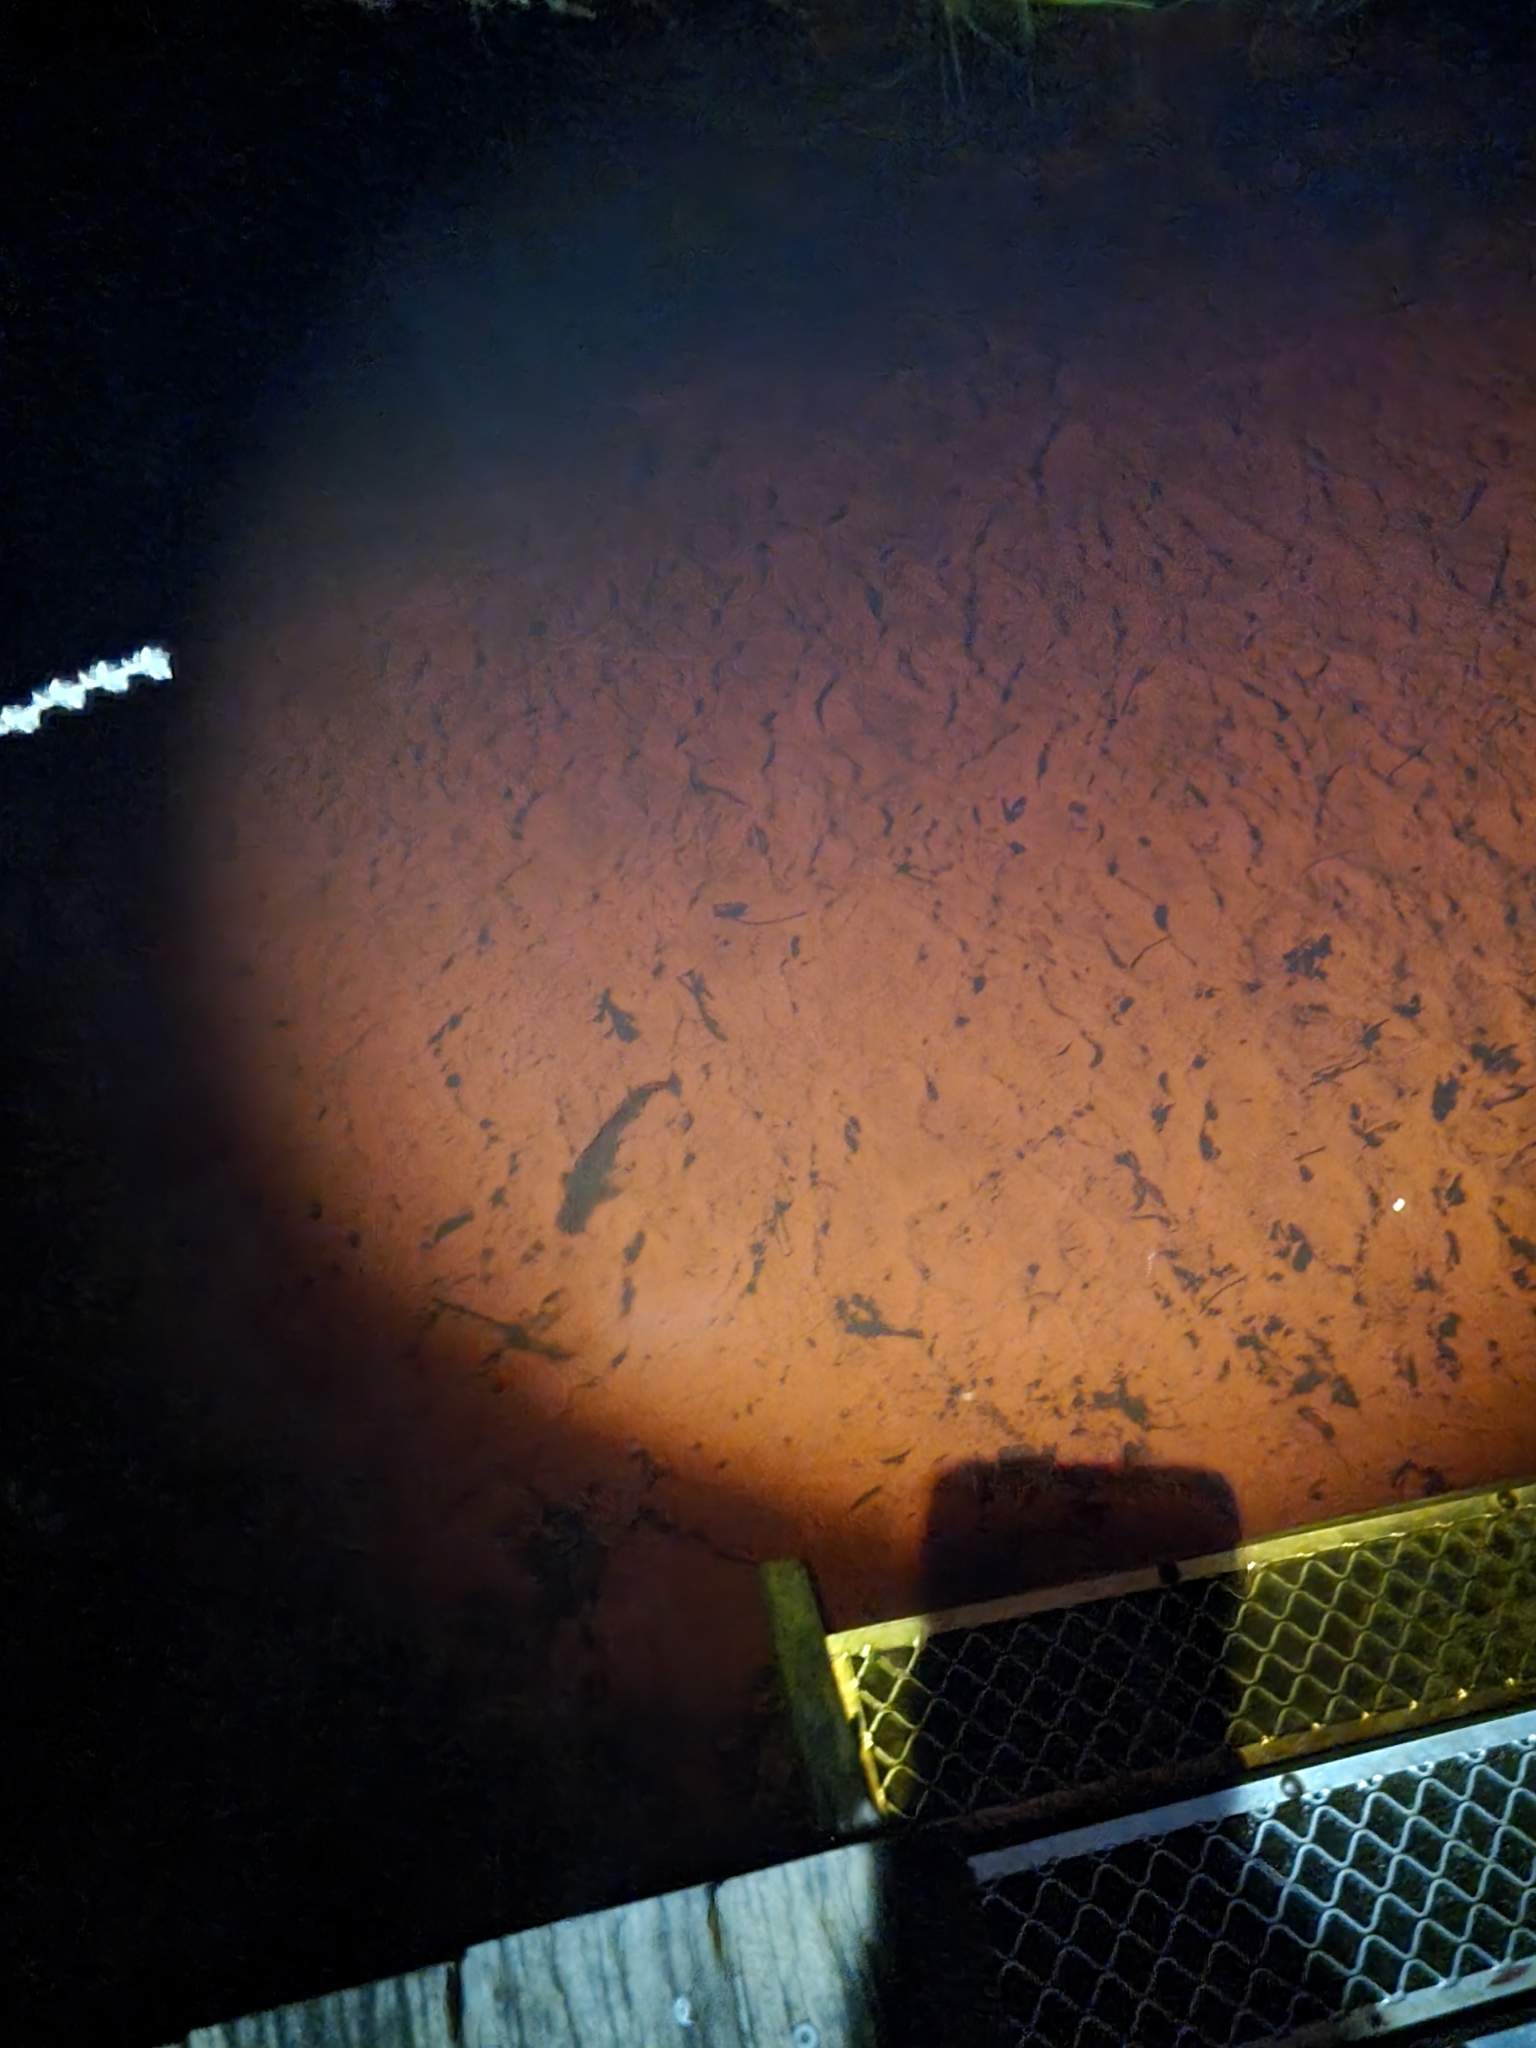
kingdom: Animalia
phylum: Chordata
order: Siluriformes
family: Plotosidae
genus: Tandanus
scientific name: Tandanus tandanus
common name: Eel-tailed catfish
